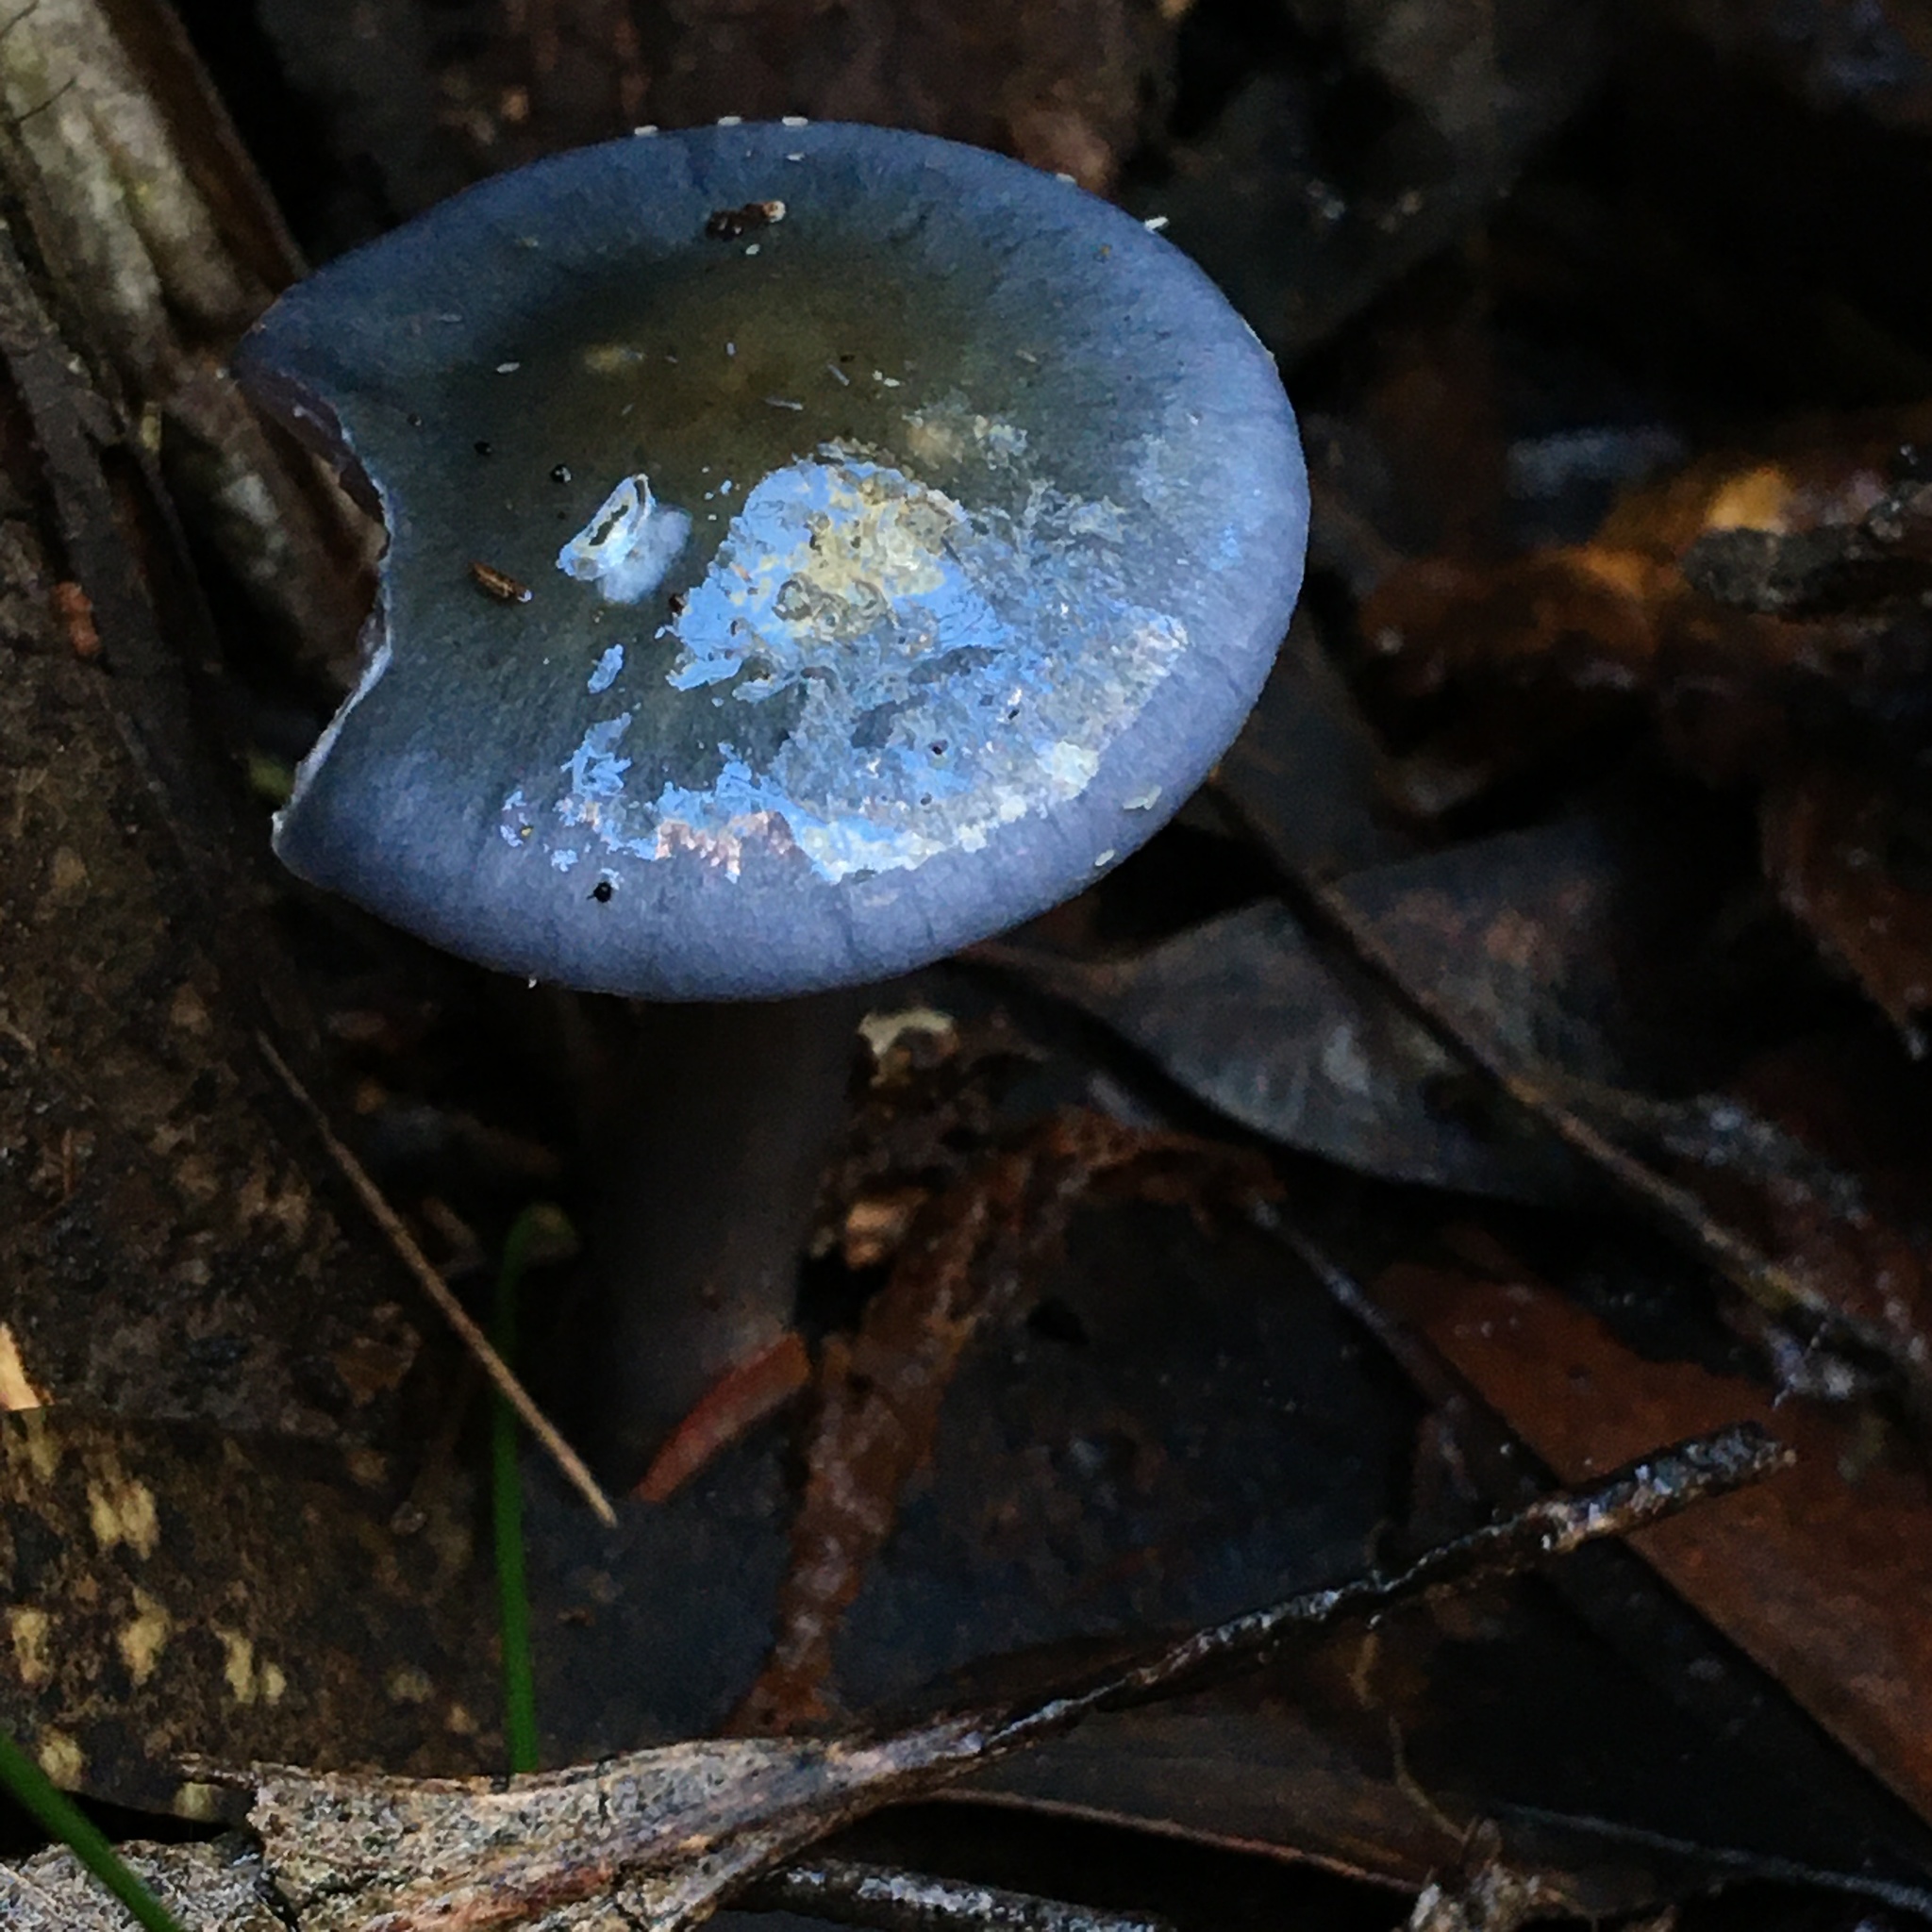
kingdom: Fungi
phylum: Basidiomycota
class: Agaricomycetes
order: Agaricales
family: Cortinariaceae
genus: Cortinarius
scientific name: Cortinarius rotundisporus
